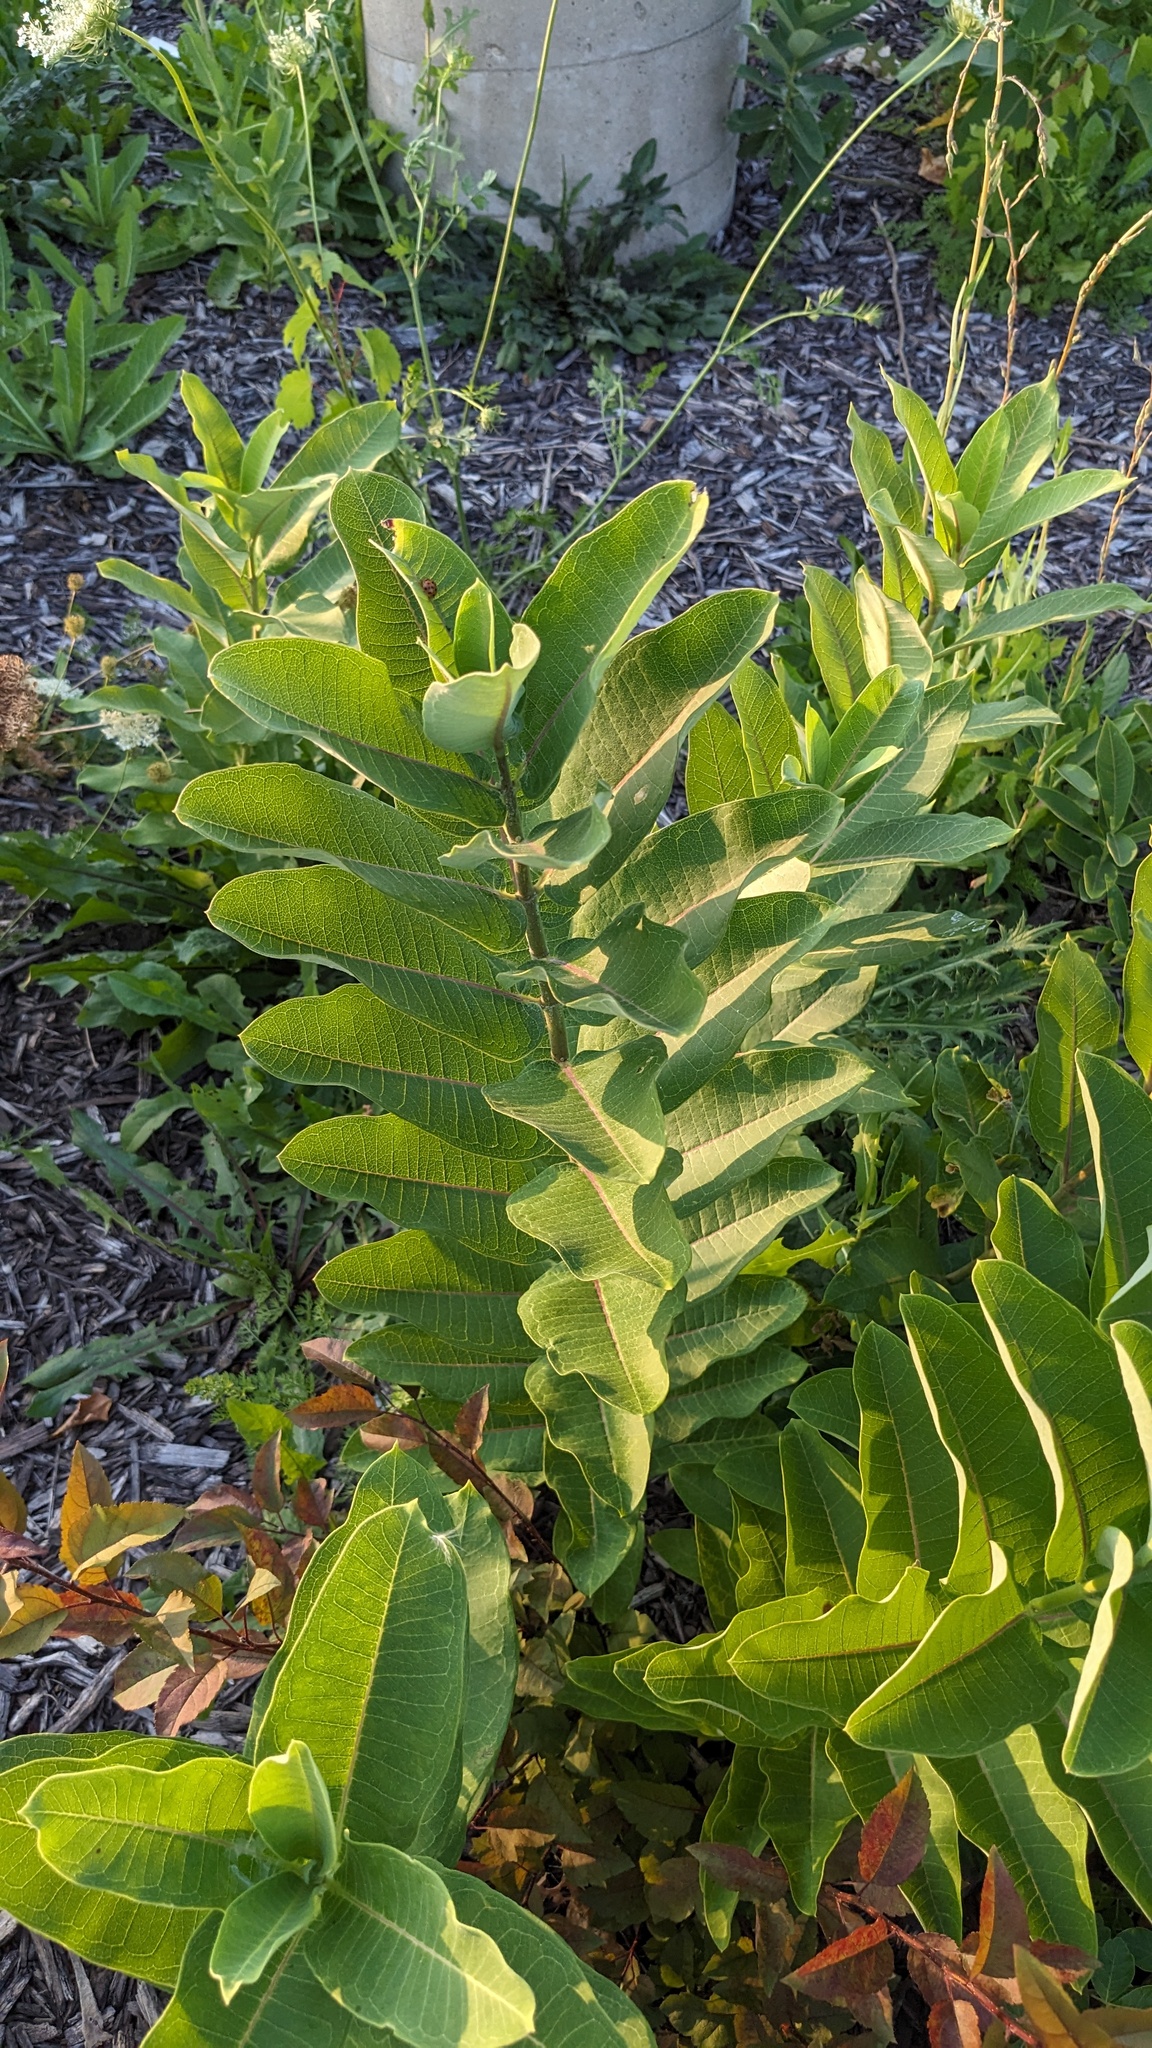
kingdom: Plantae
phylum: Tracheophyta
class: Magnoliopsida
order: Gentianales
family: Apocynaceae
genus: Asclepias
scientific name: Asclepias syriaca
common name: Common milkweed
